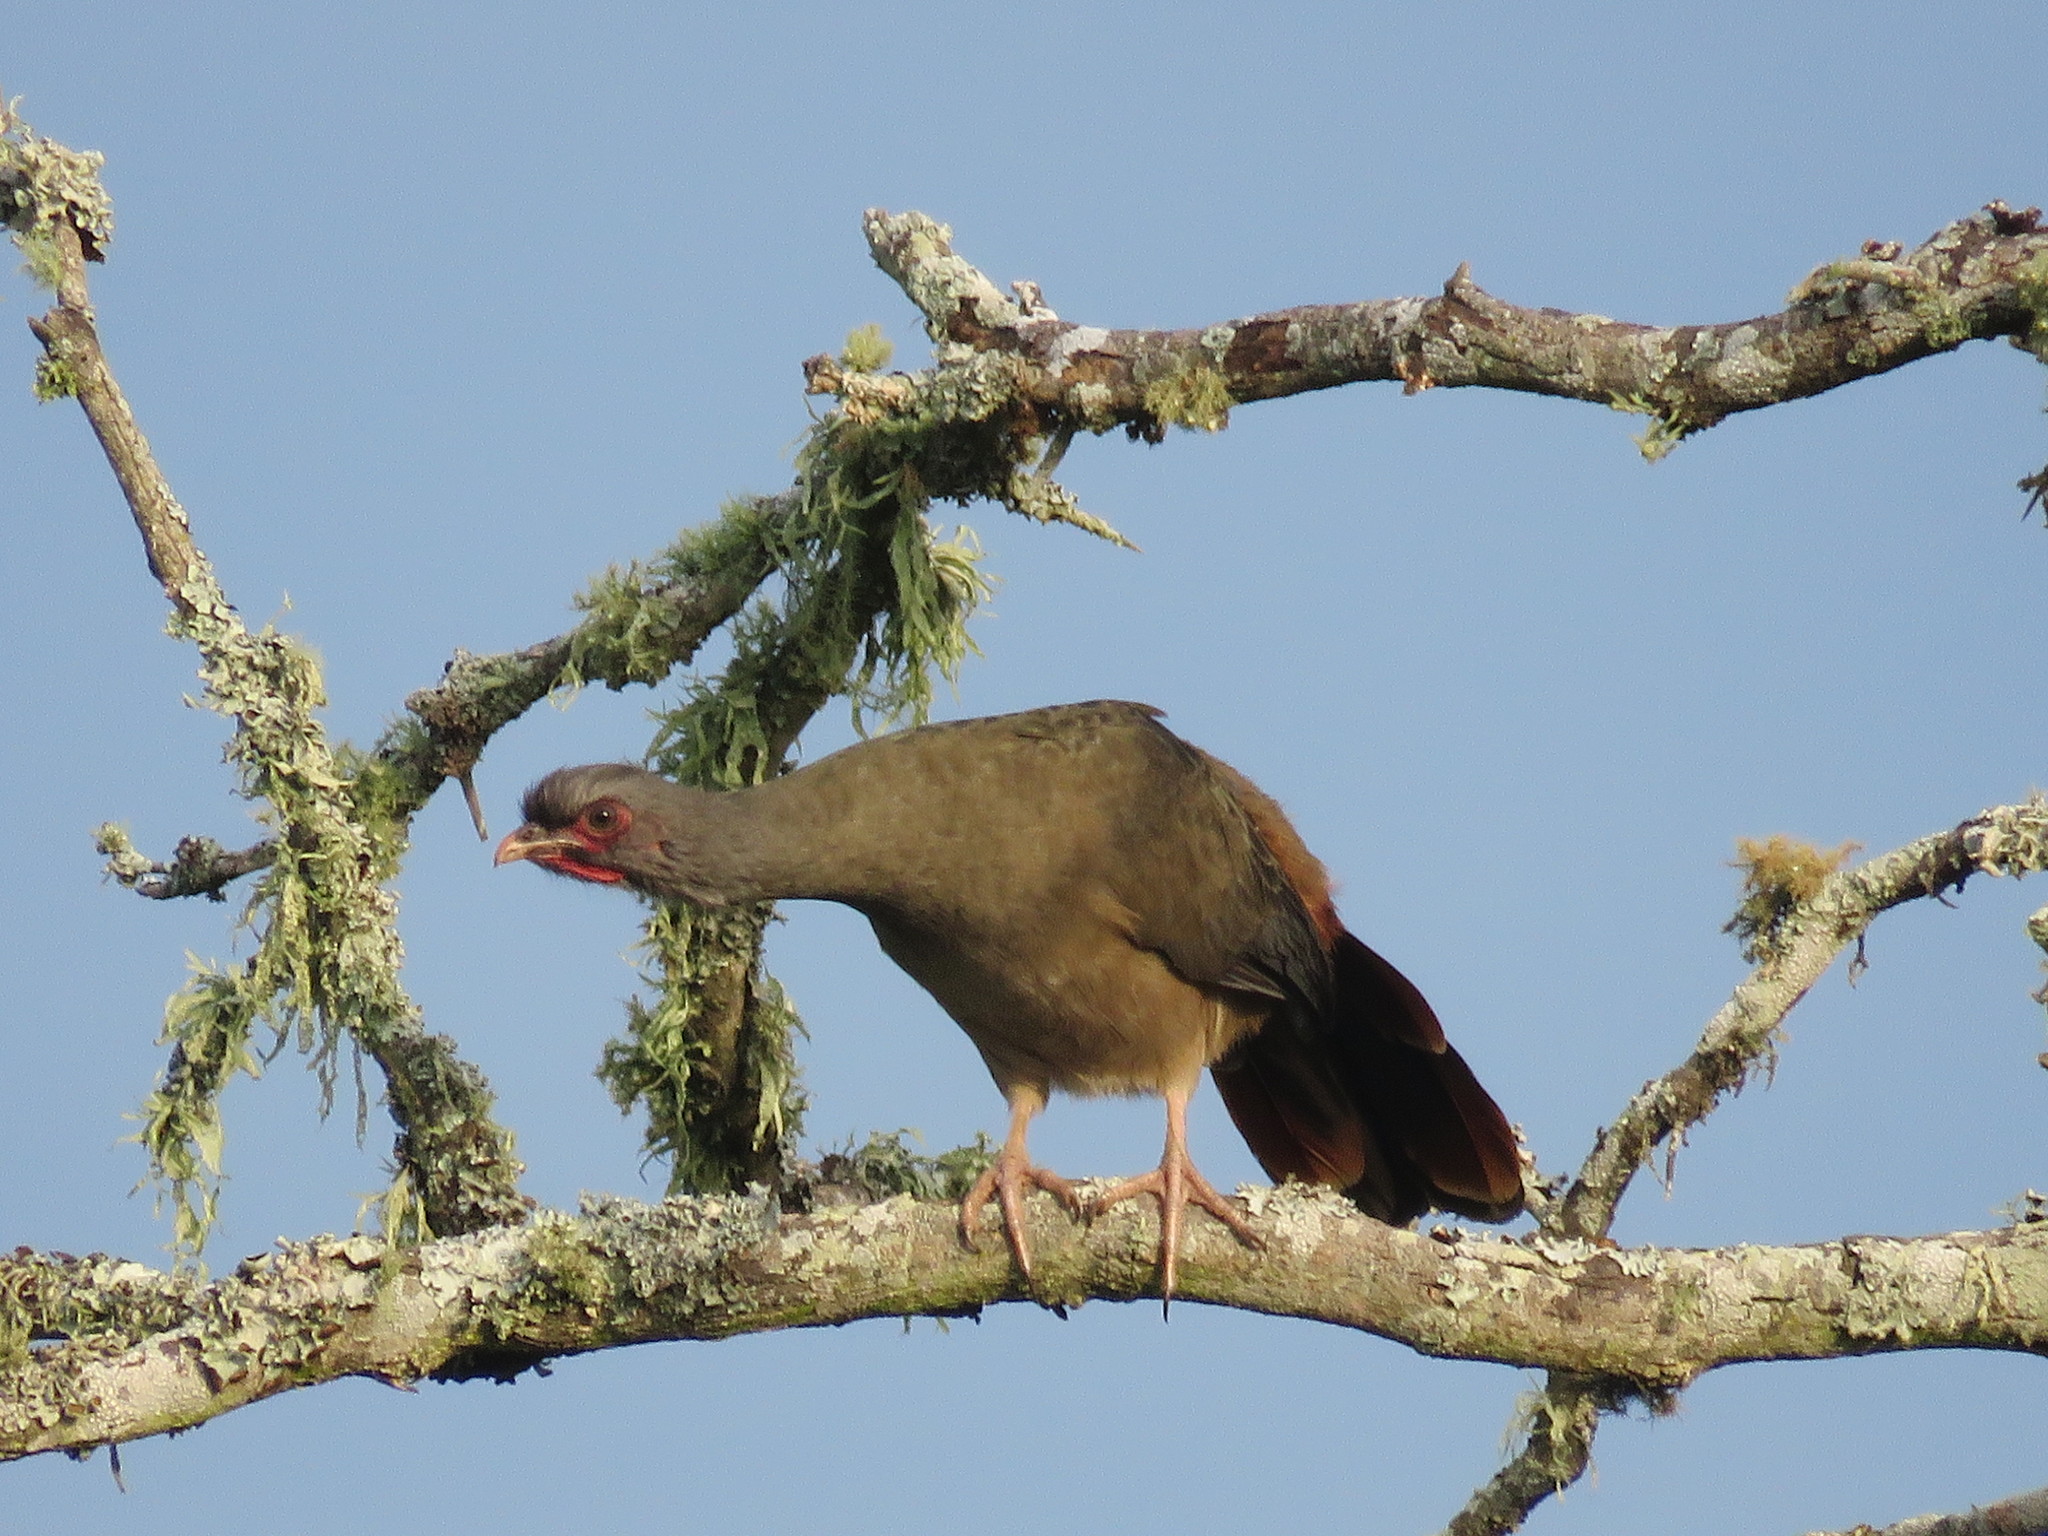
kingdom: Animalia
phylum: Chordata
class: Aves
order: Galliformes
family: Cracidae
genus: Ortalis
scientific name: Ortalis canicollis
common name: Chaco chachalaca
